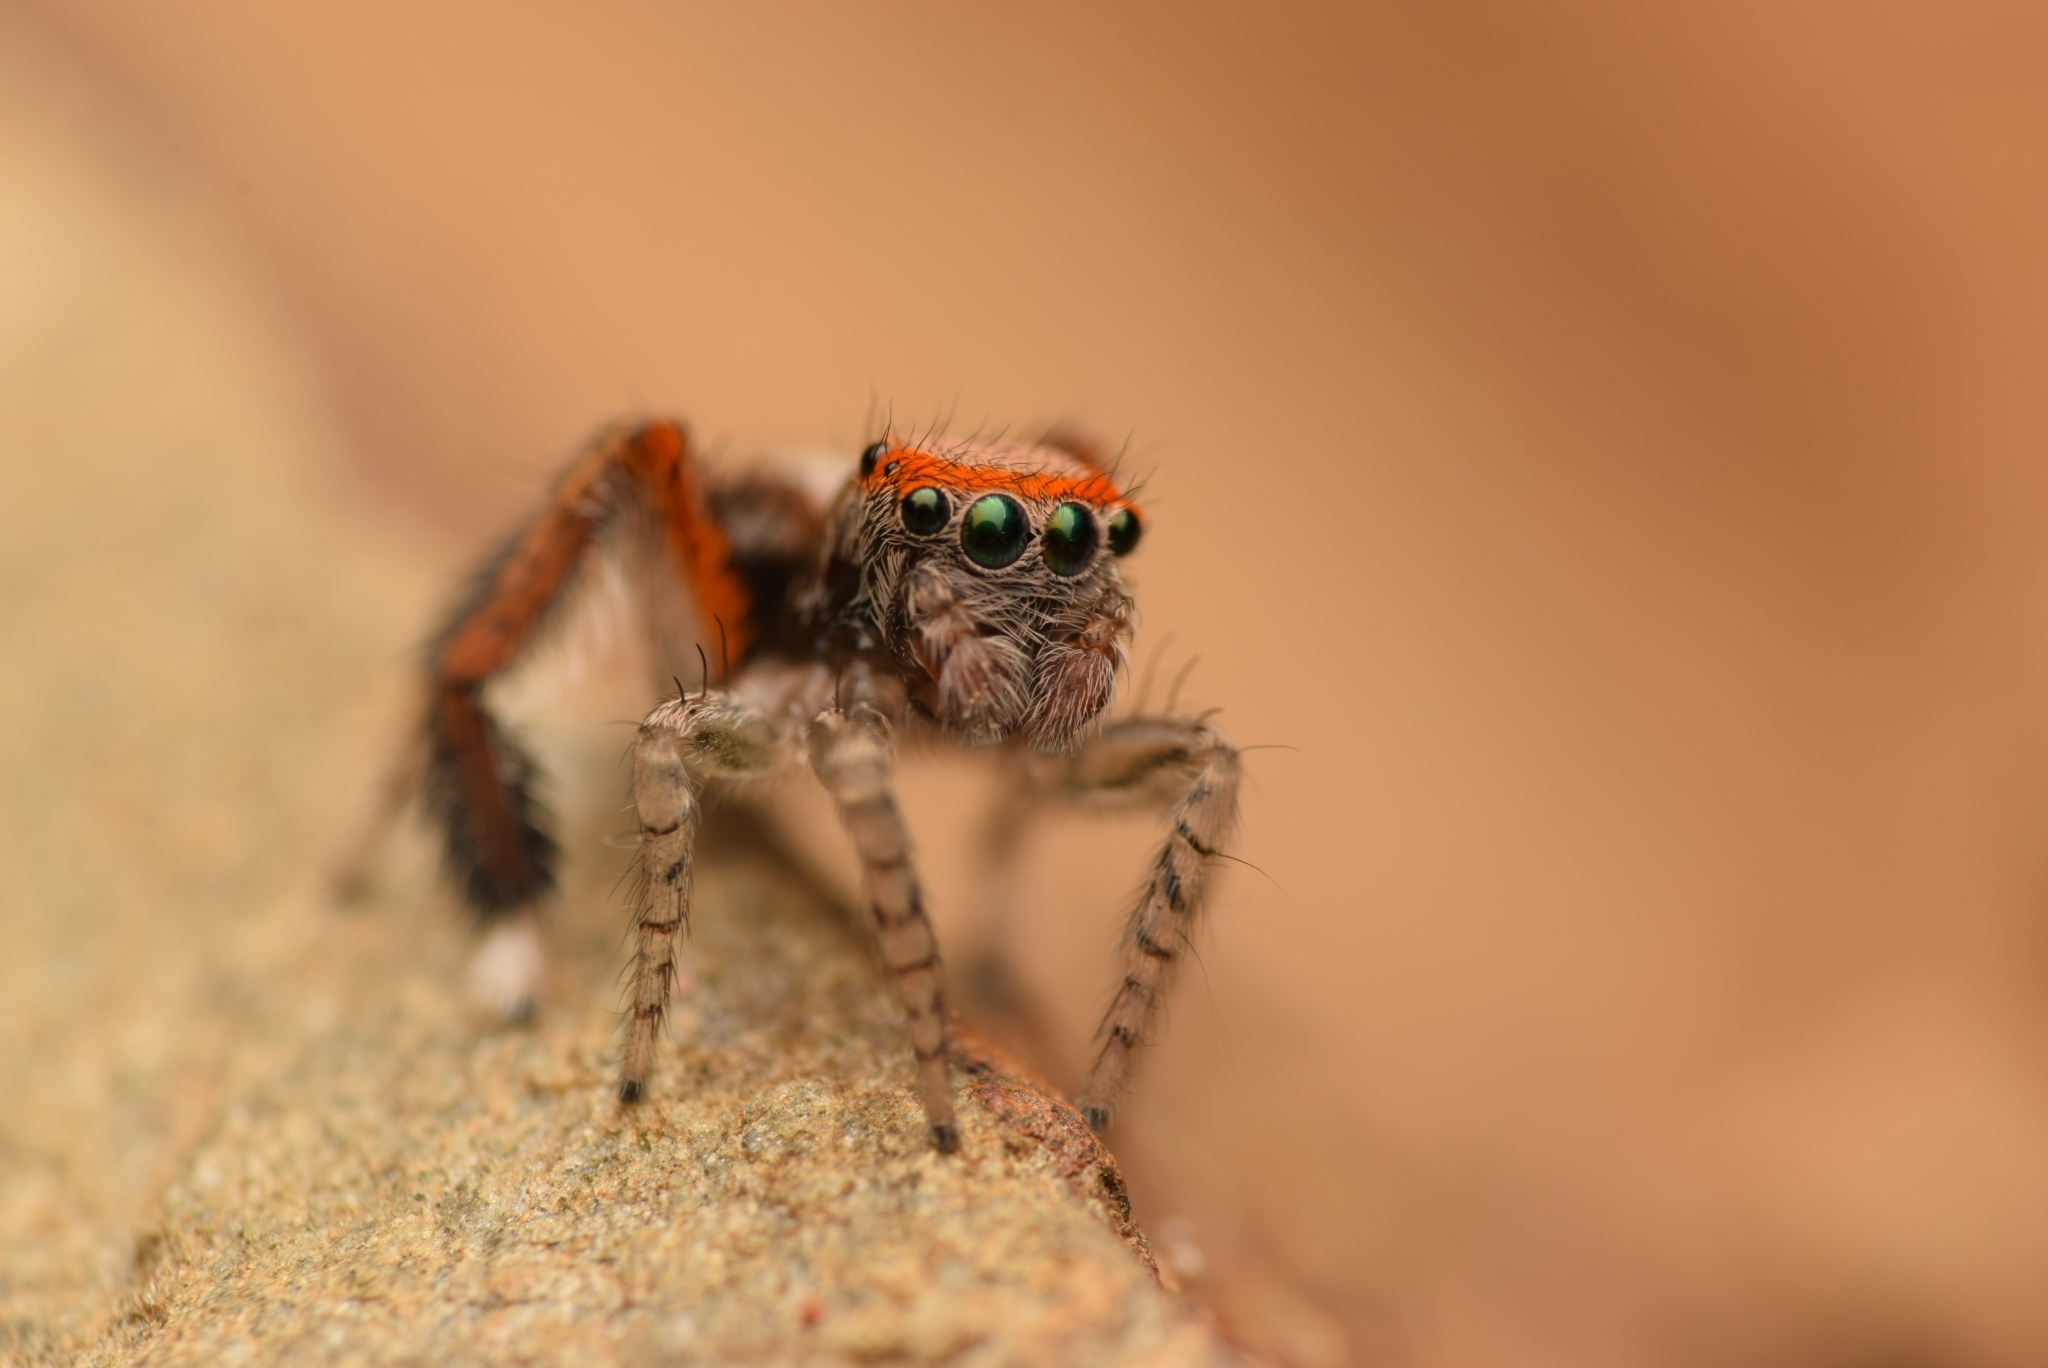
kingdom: Animalia
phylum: Arthropoda
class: Arachnida
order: Araneae
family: Salticidae
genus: Saitis
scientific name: Saitis barbipes
